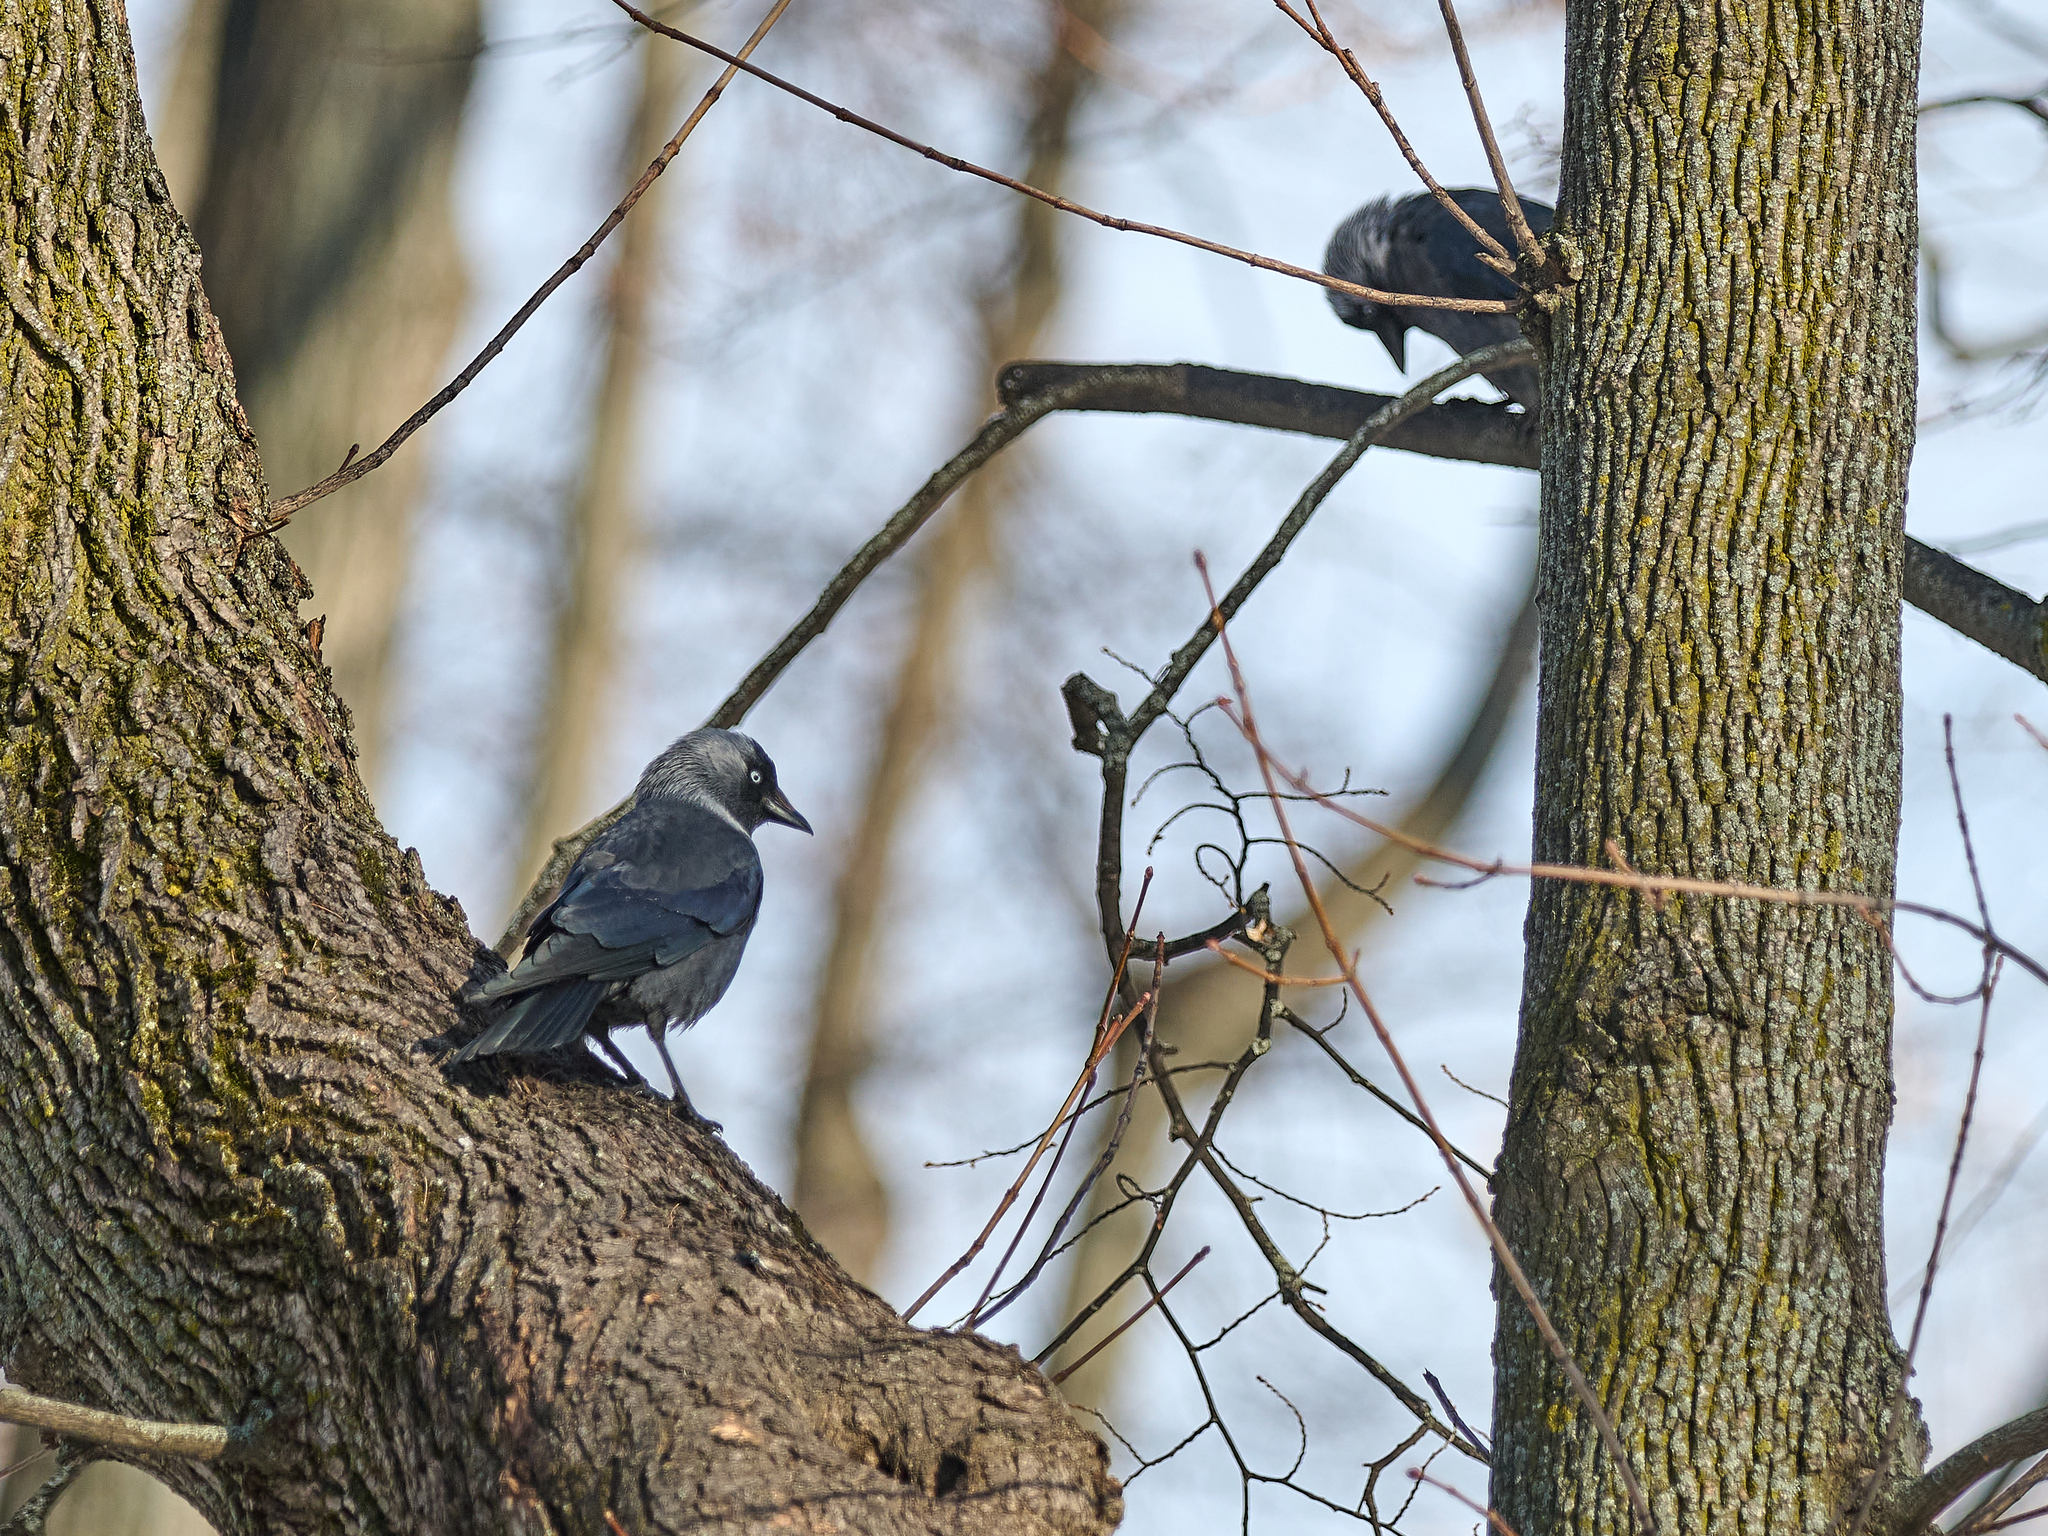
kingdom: Animalia
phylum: Chordata
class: Aves
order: Passeriformes
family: Corvidae
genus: Coloeus
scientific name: Coloeus monedula
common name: Western jackdaw
